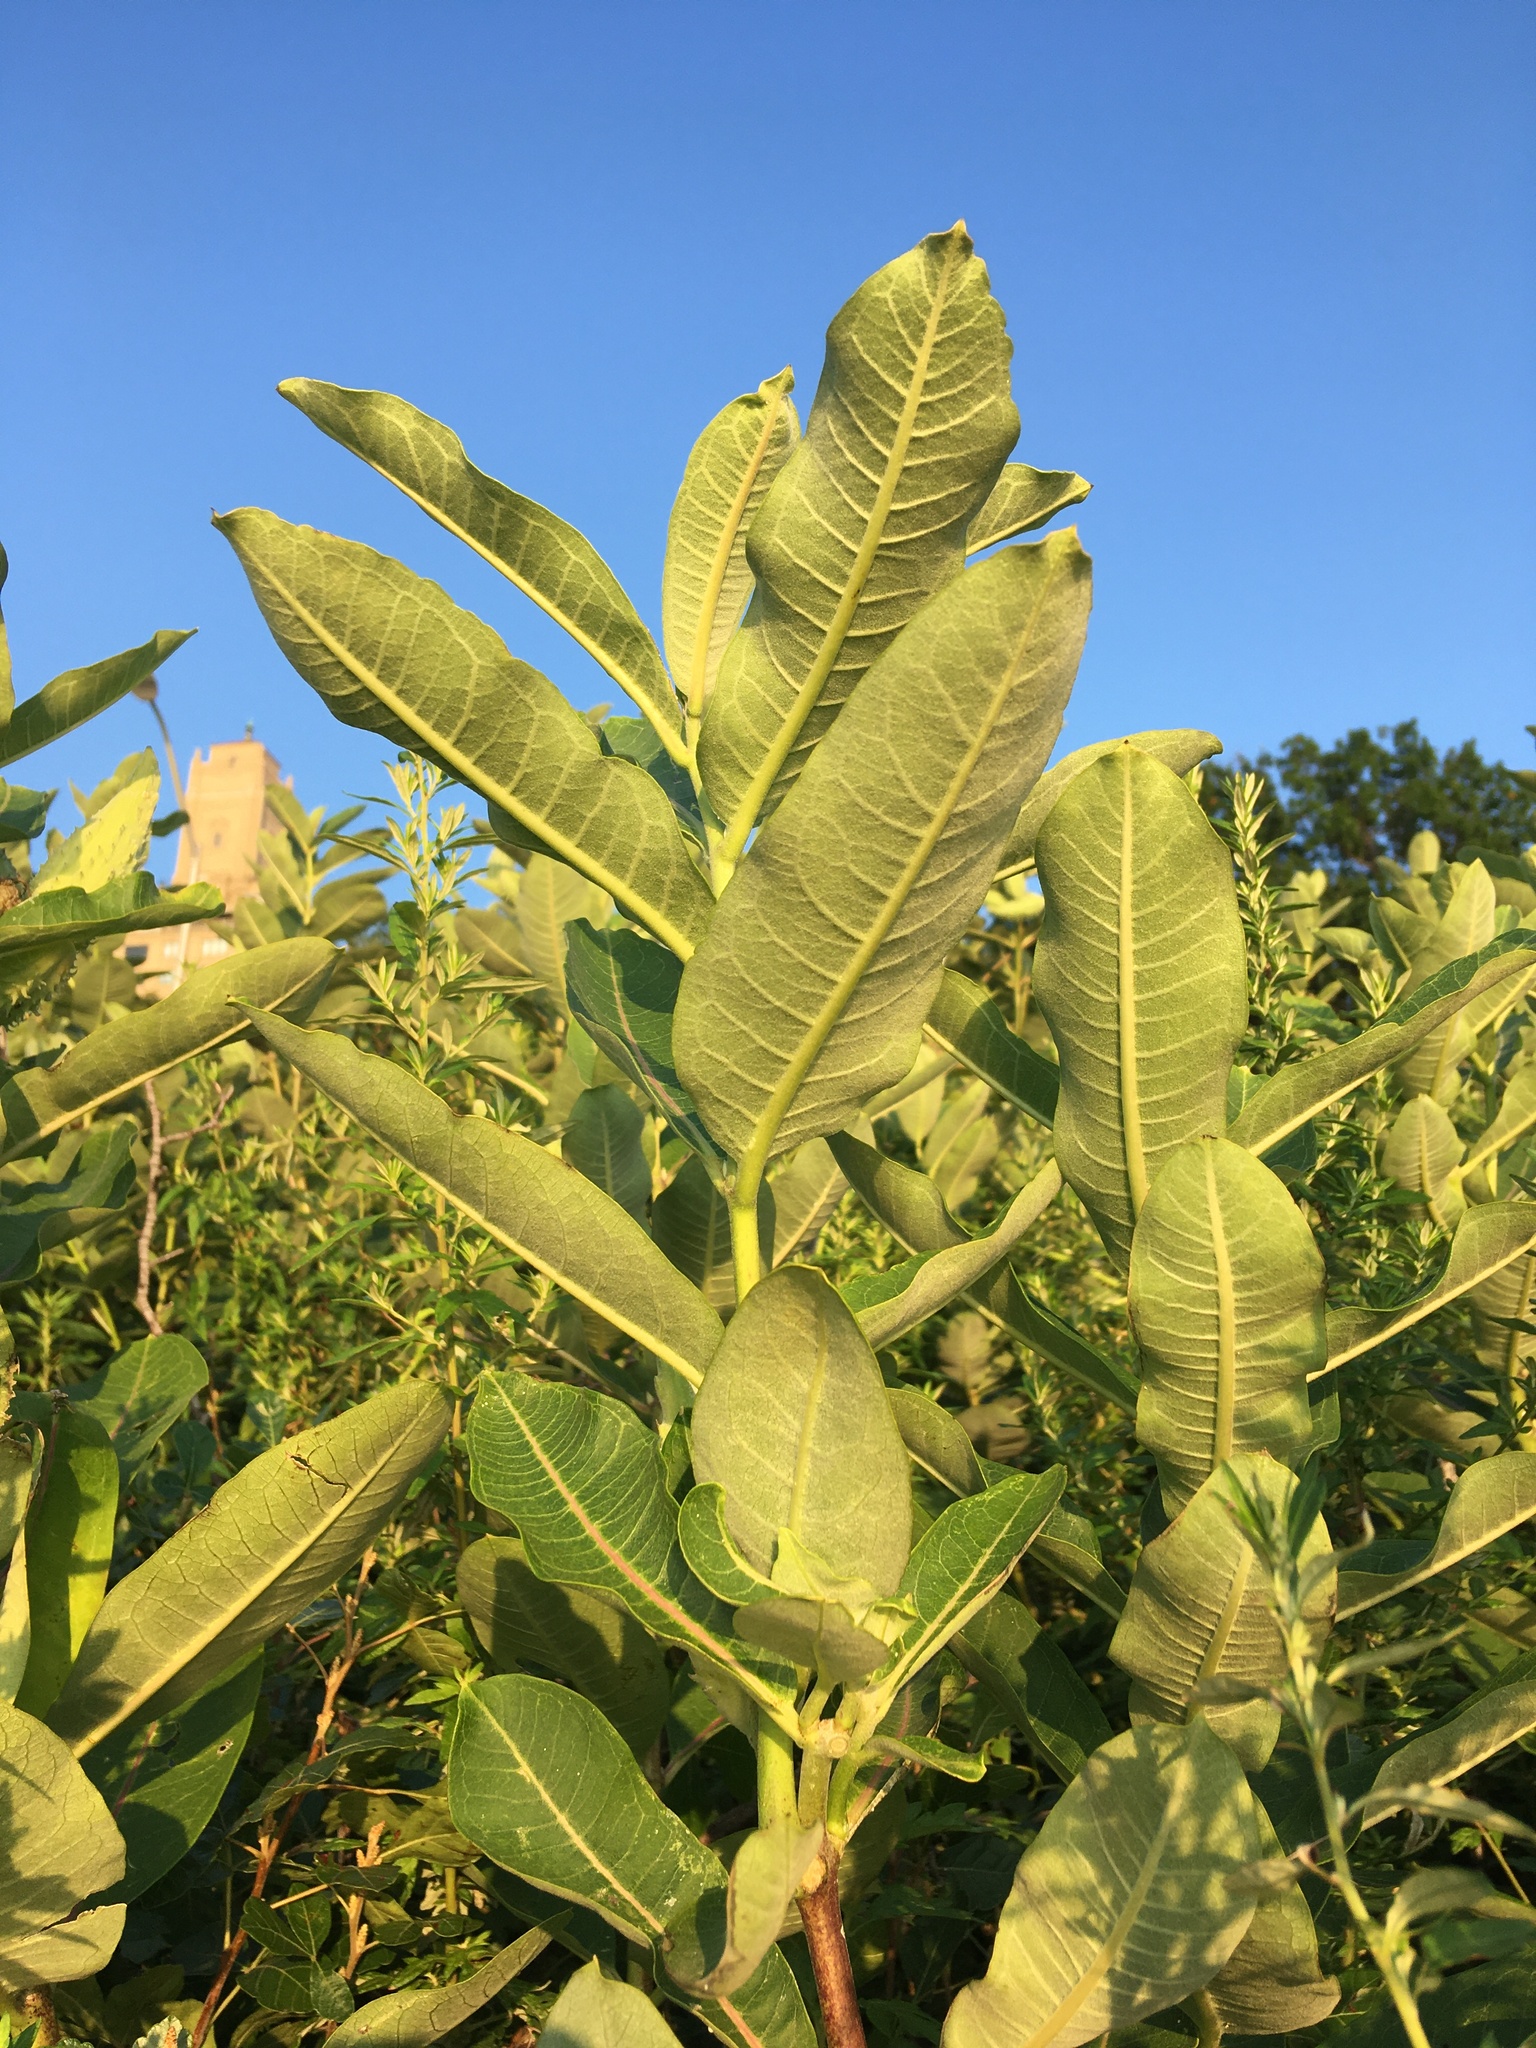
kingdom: Plantae
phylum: Tracheophyta
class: Magnoliopsida
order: Gentianales
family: Apocynaceae
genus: Asclepias
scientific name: Asclepias syriaca
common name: Common milkweed
